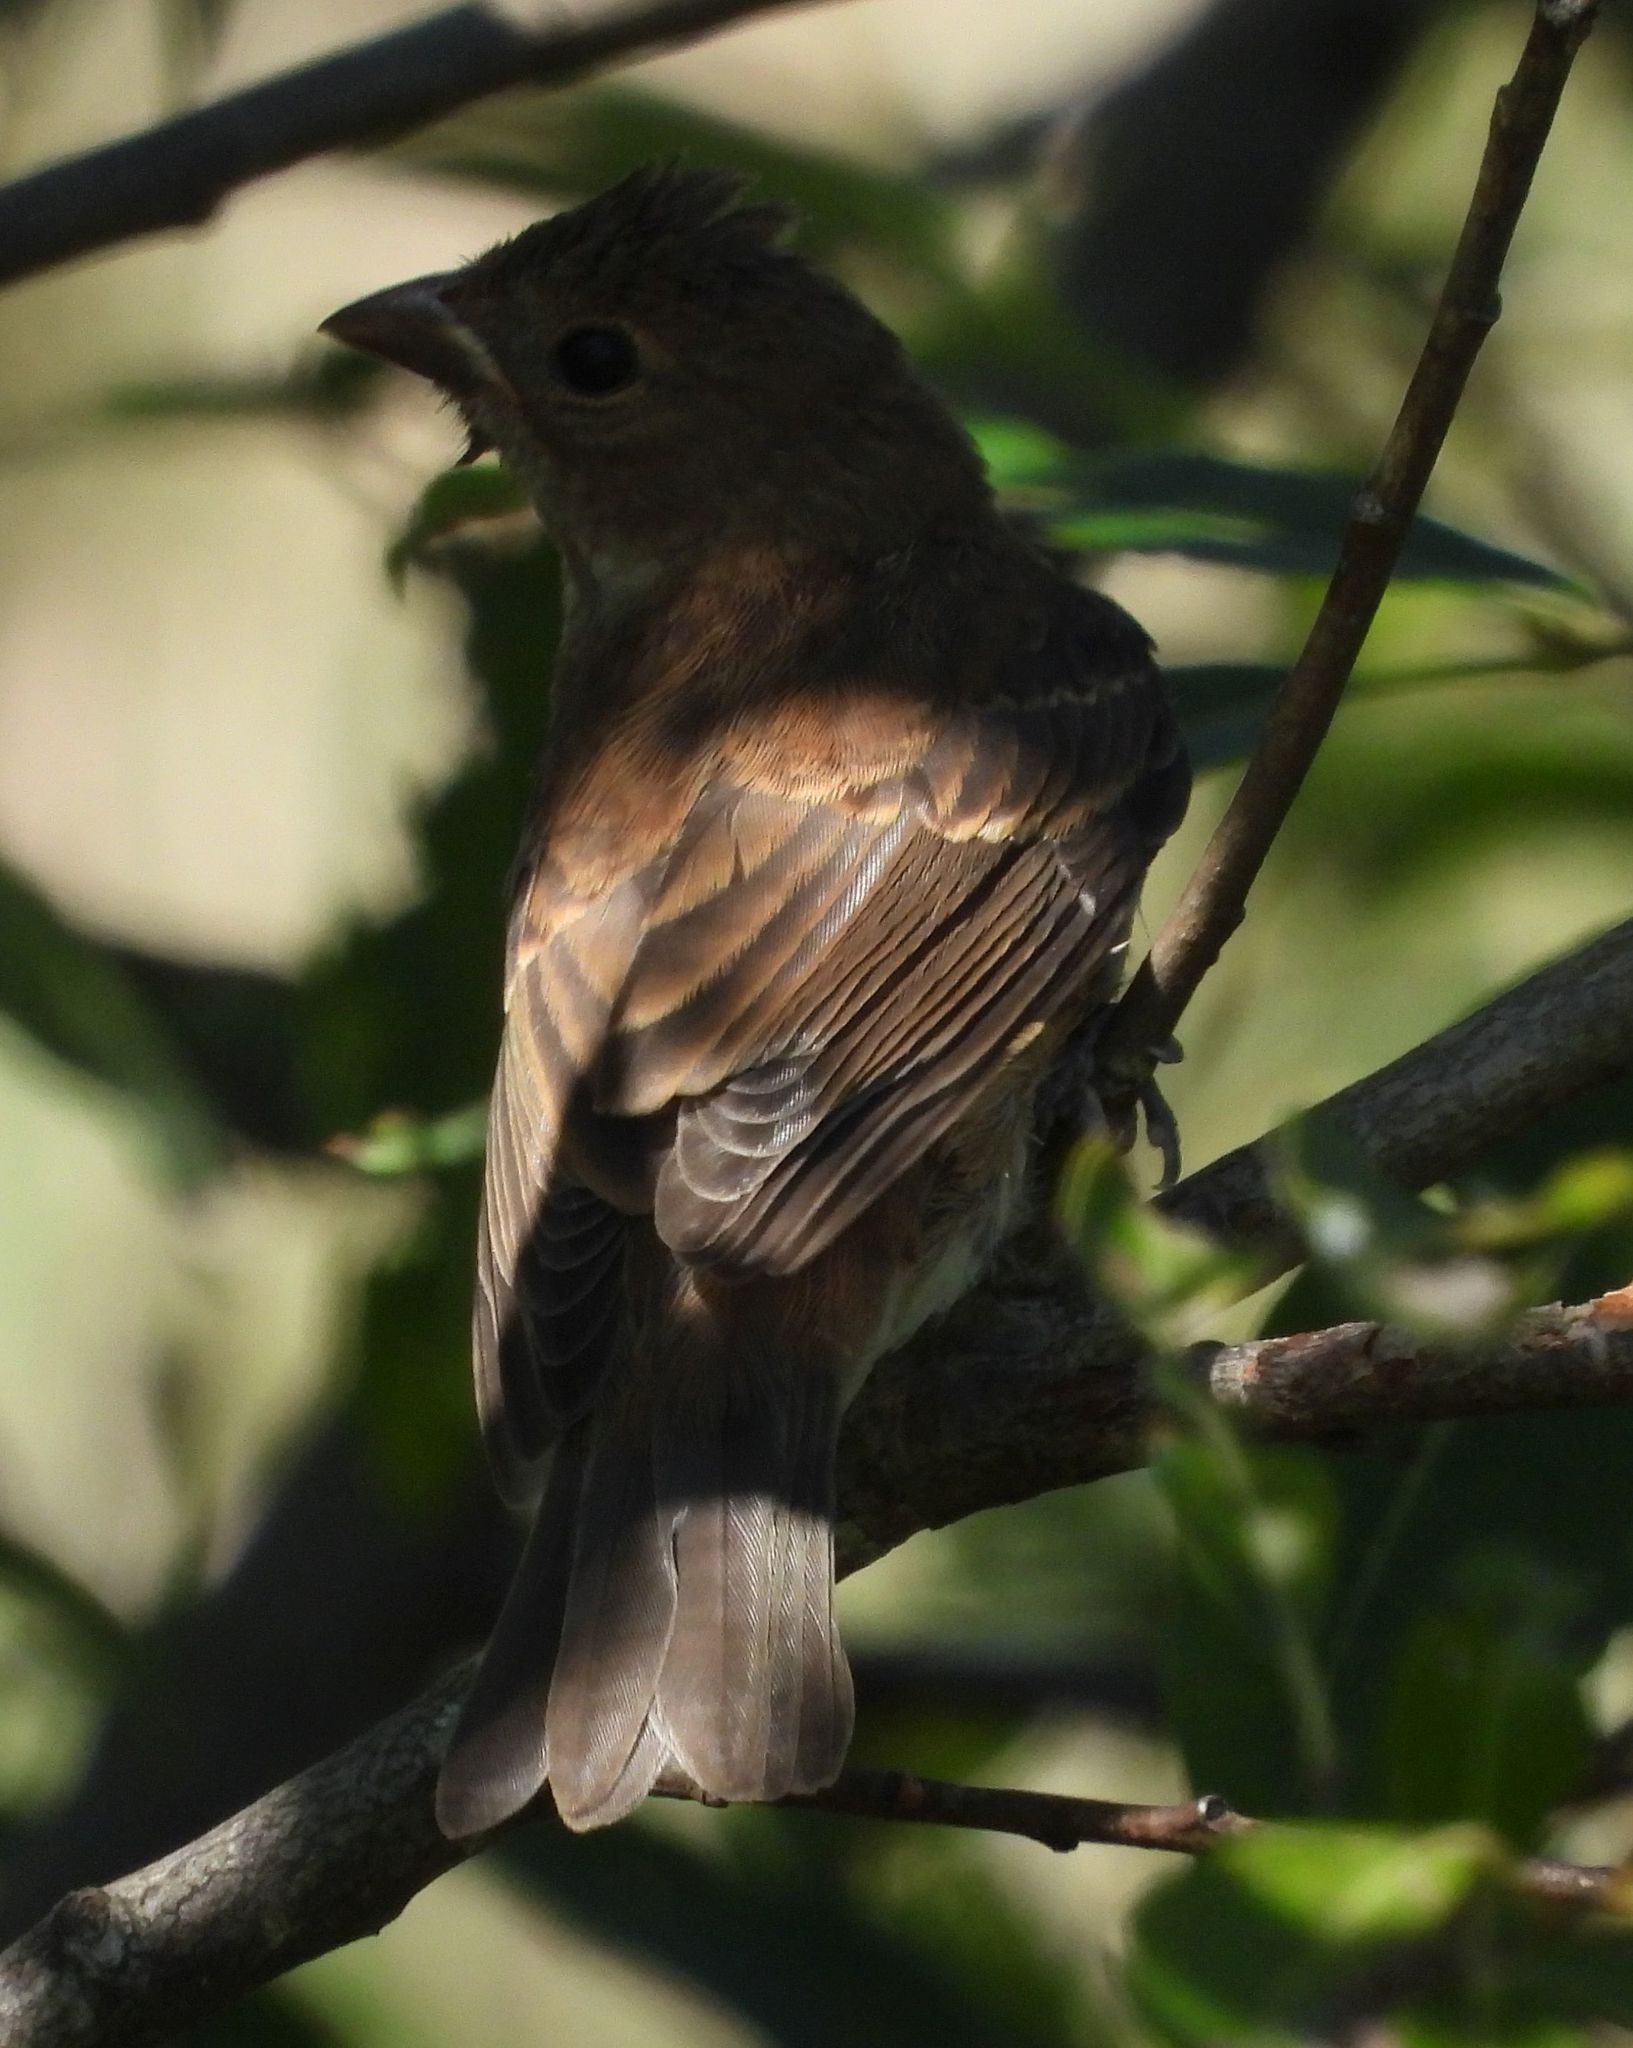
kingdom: Animalia
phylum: Chordata
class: Aves
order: Passeriformes
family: Cardinalidae
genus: Passerina
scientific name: Passerina cyanea
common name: Indigo bunting
